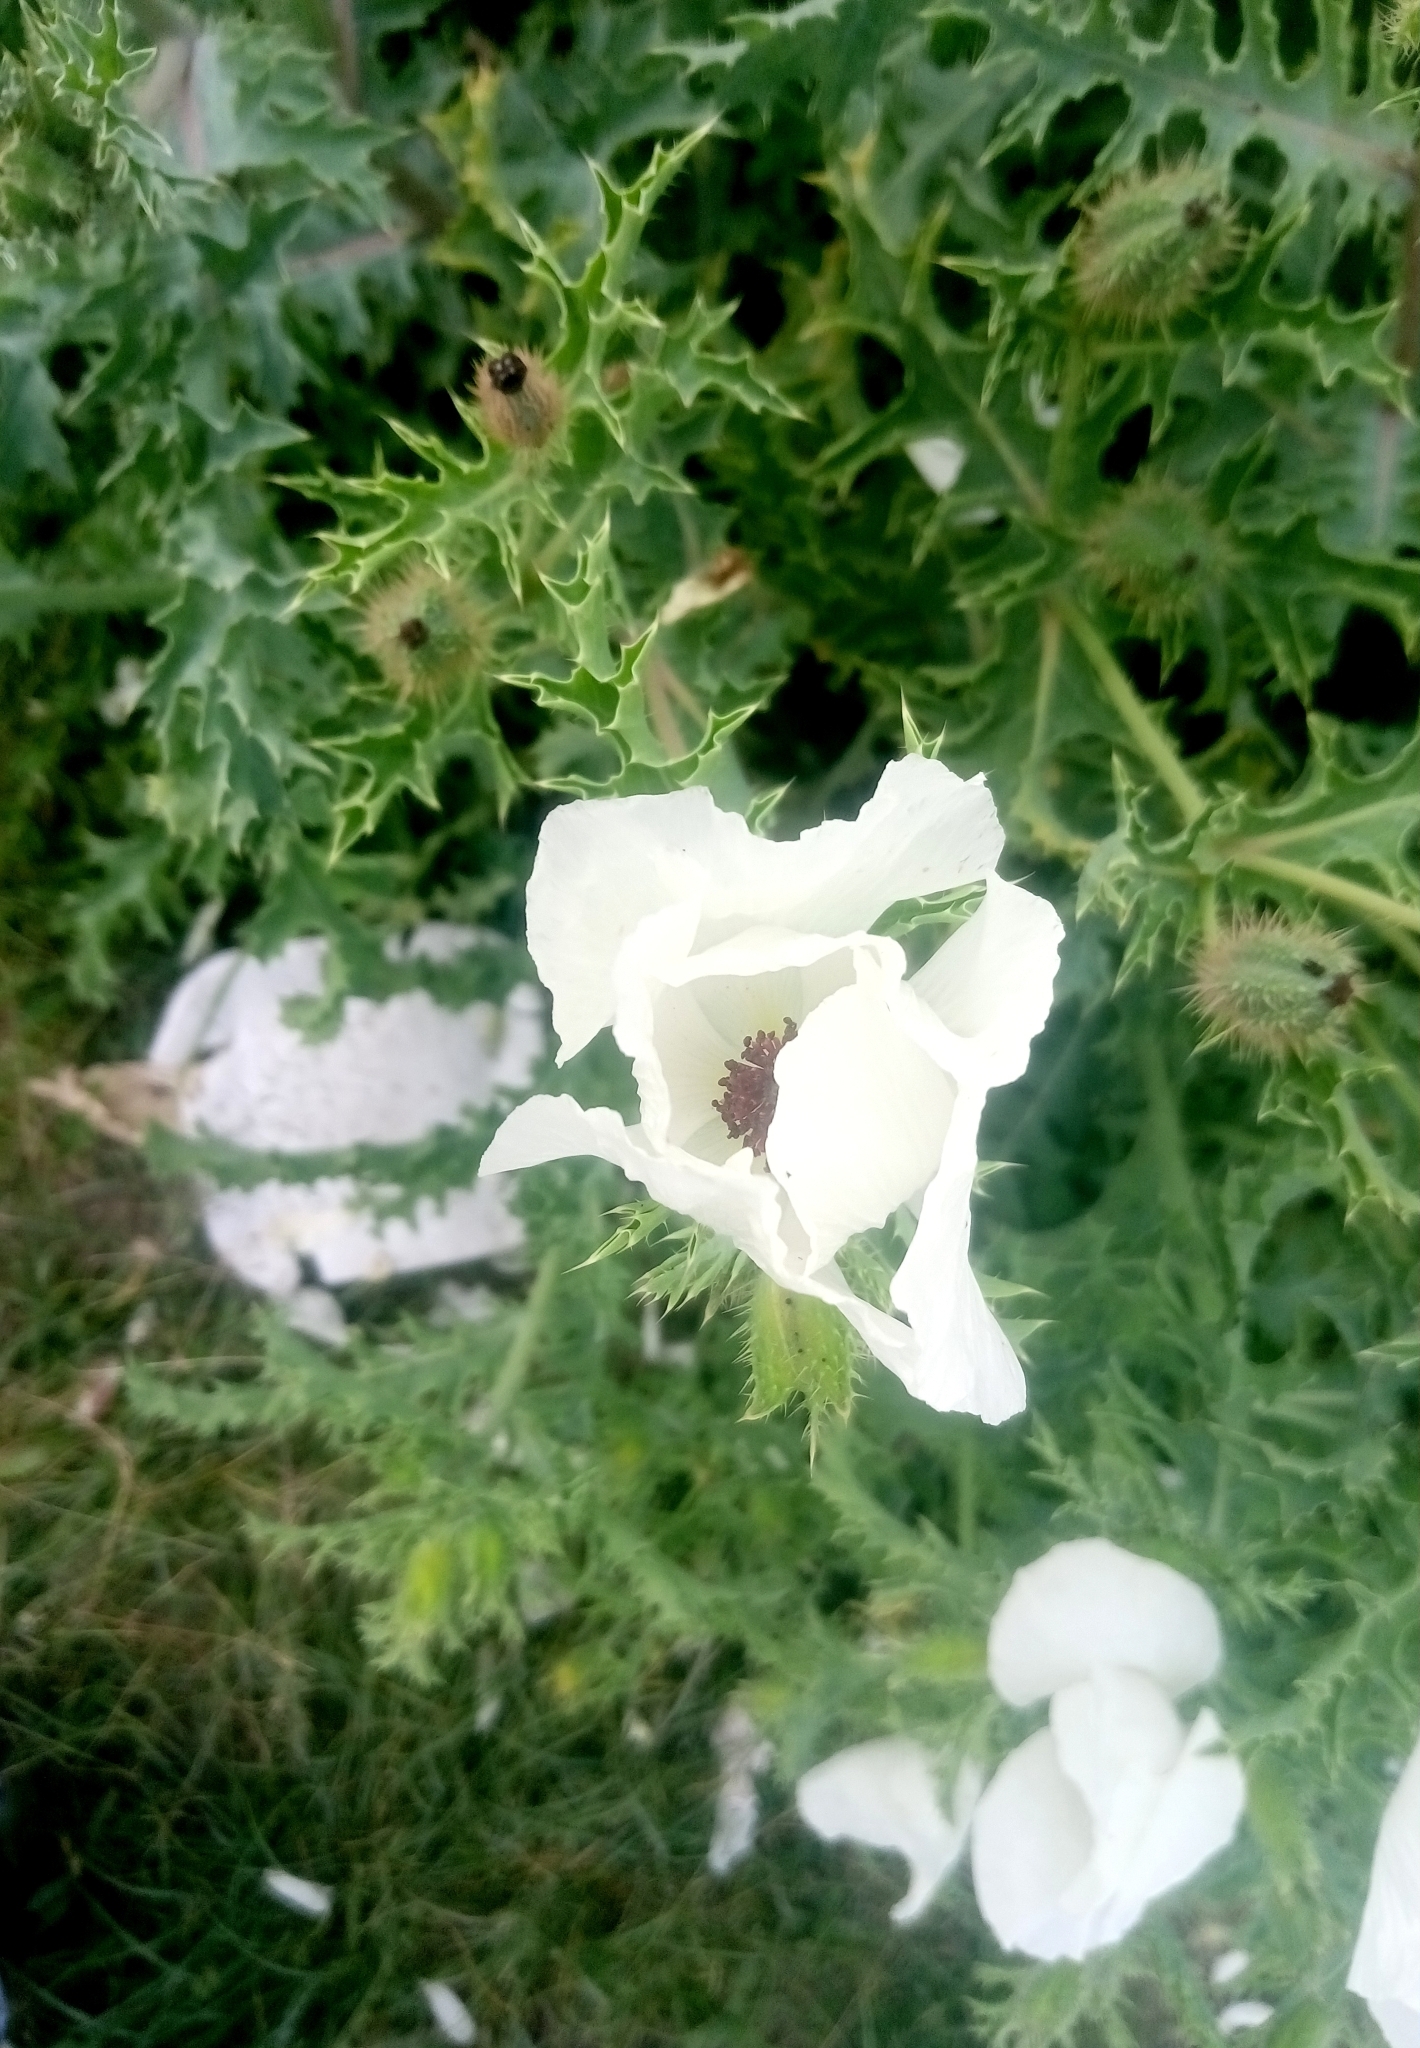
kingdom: Plantae
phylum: Tracheophyta
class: Magnoliopsida
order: Ranunculales
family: Papaveraceae
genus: Argemone
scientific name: Argemone platyceras
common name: Crested-poppy
